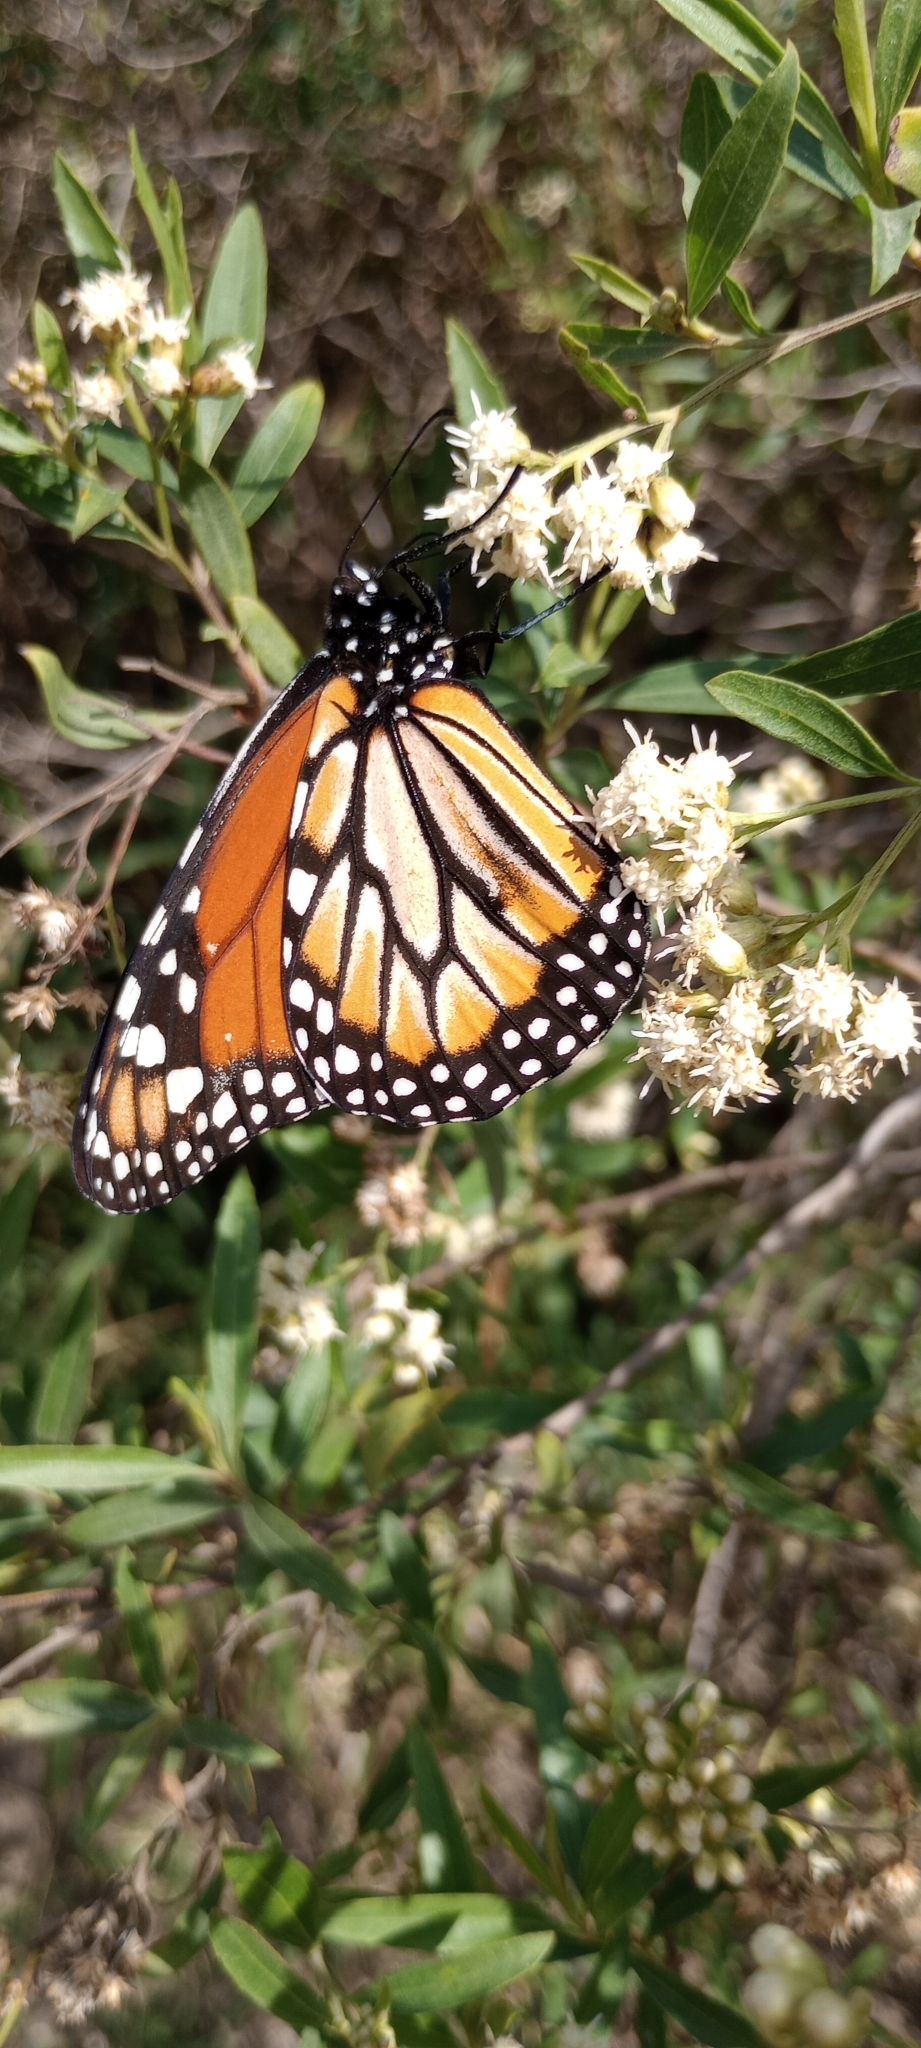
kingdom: Animalia
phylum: Arthropoda
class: Insecta
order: Lepidoptera
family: Nymphalidae
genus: Danaus
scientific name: Danaus erippus
